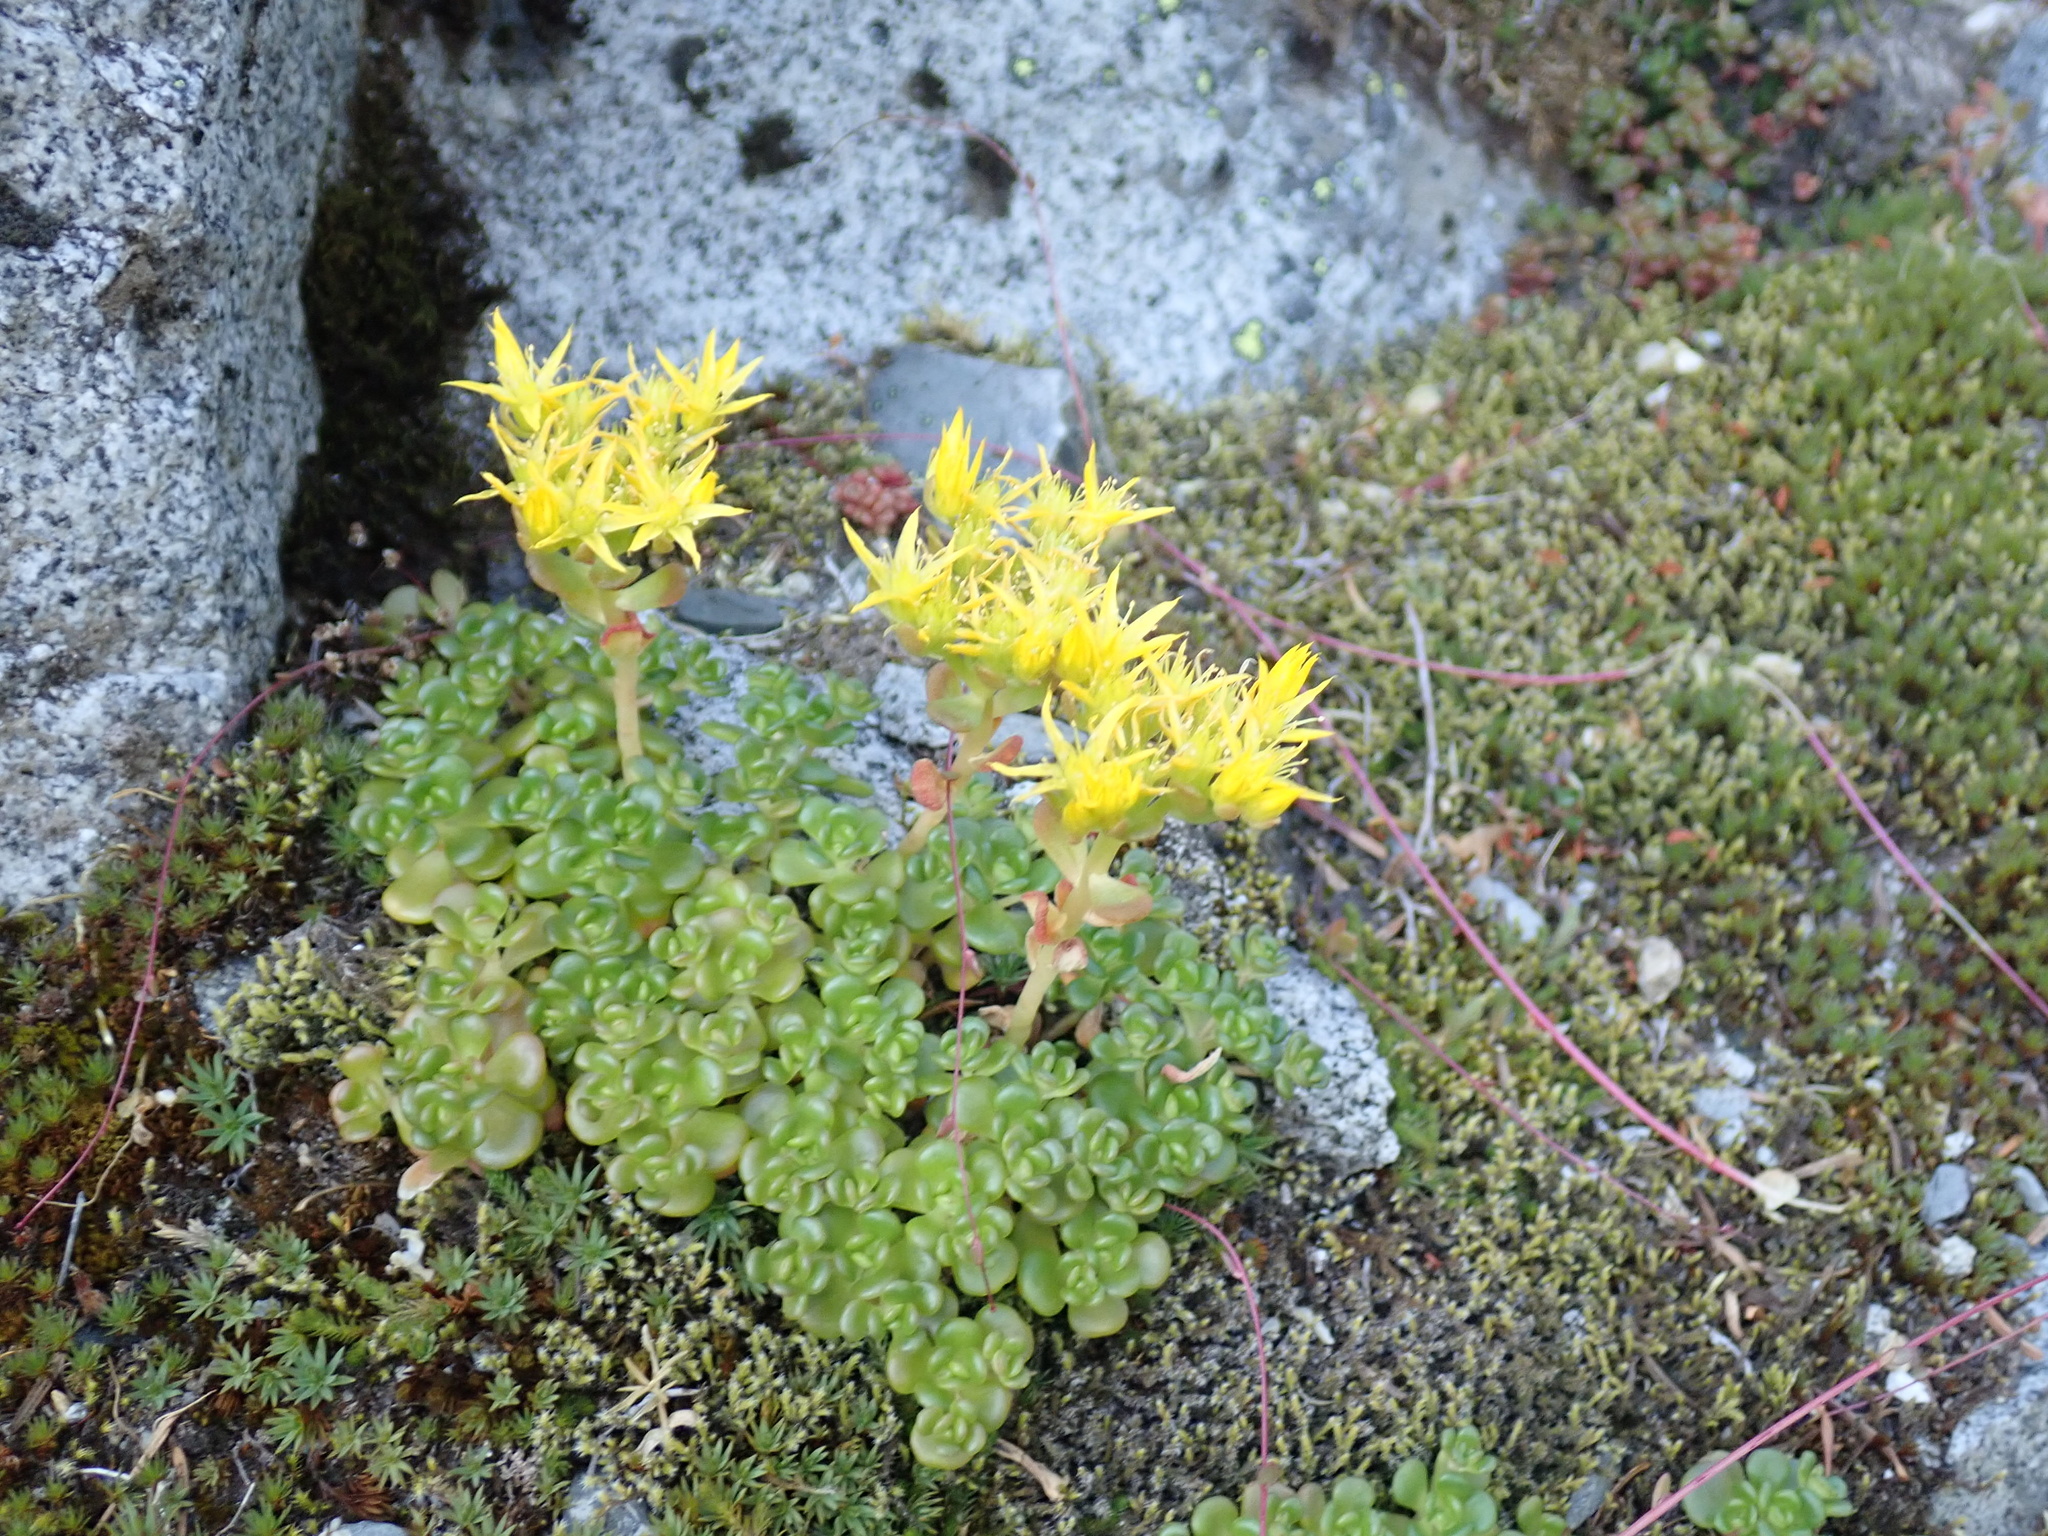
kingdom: Plantae
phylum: Tracheophyta
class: Magnoliopsida
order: Saxifragales
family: Crassulaceae
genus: Sedum
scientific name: Sedum oreganum
